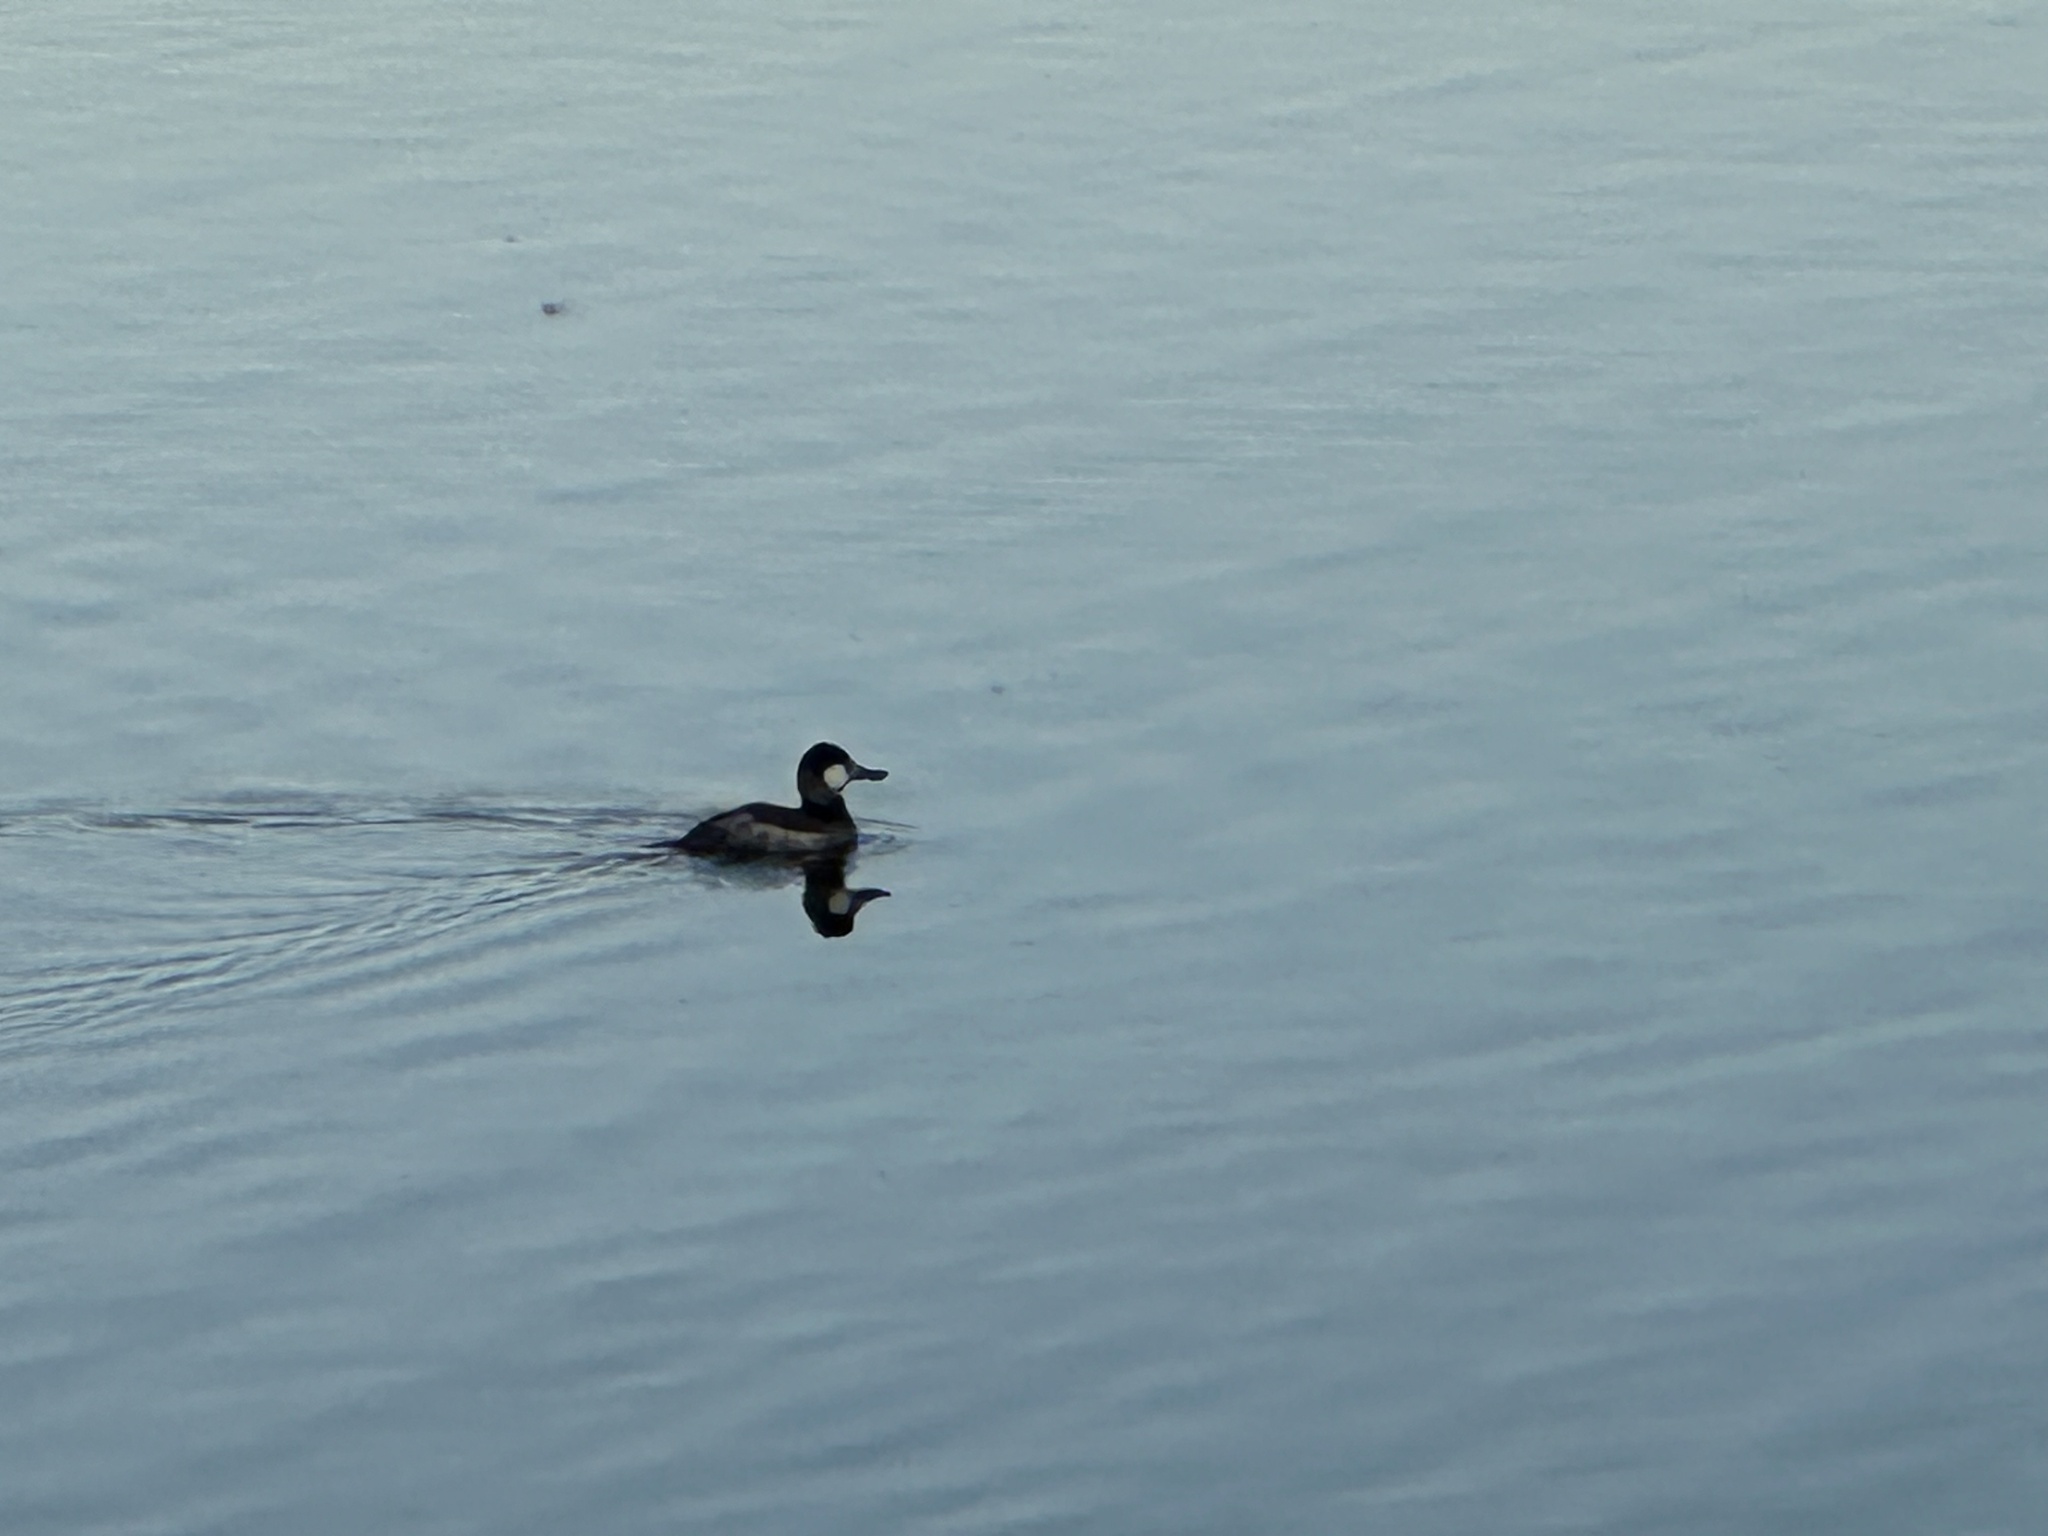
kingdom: Animalia
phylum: Chordata
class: Aves
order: Anseriformes
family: Anatidae
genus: Oxyura
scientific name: Oxyura jamaicensis
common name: Ruddy duck
